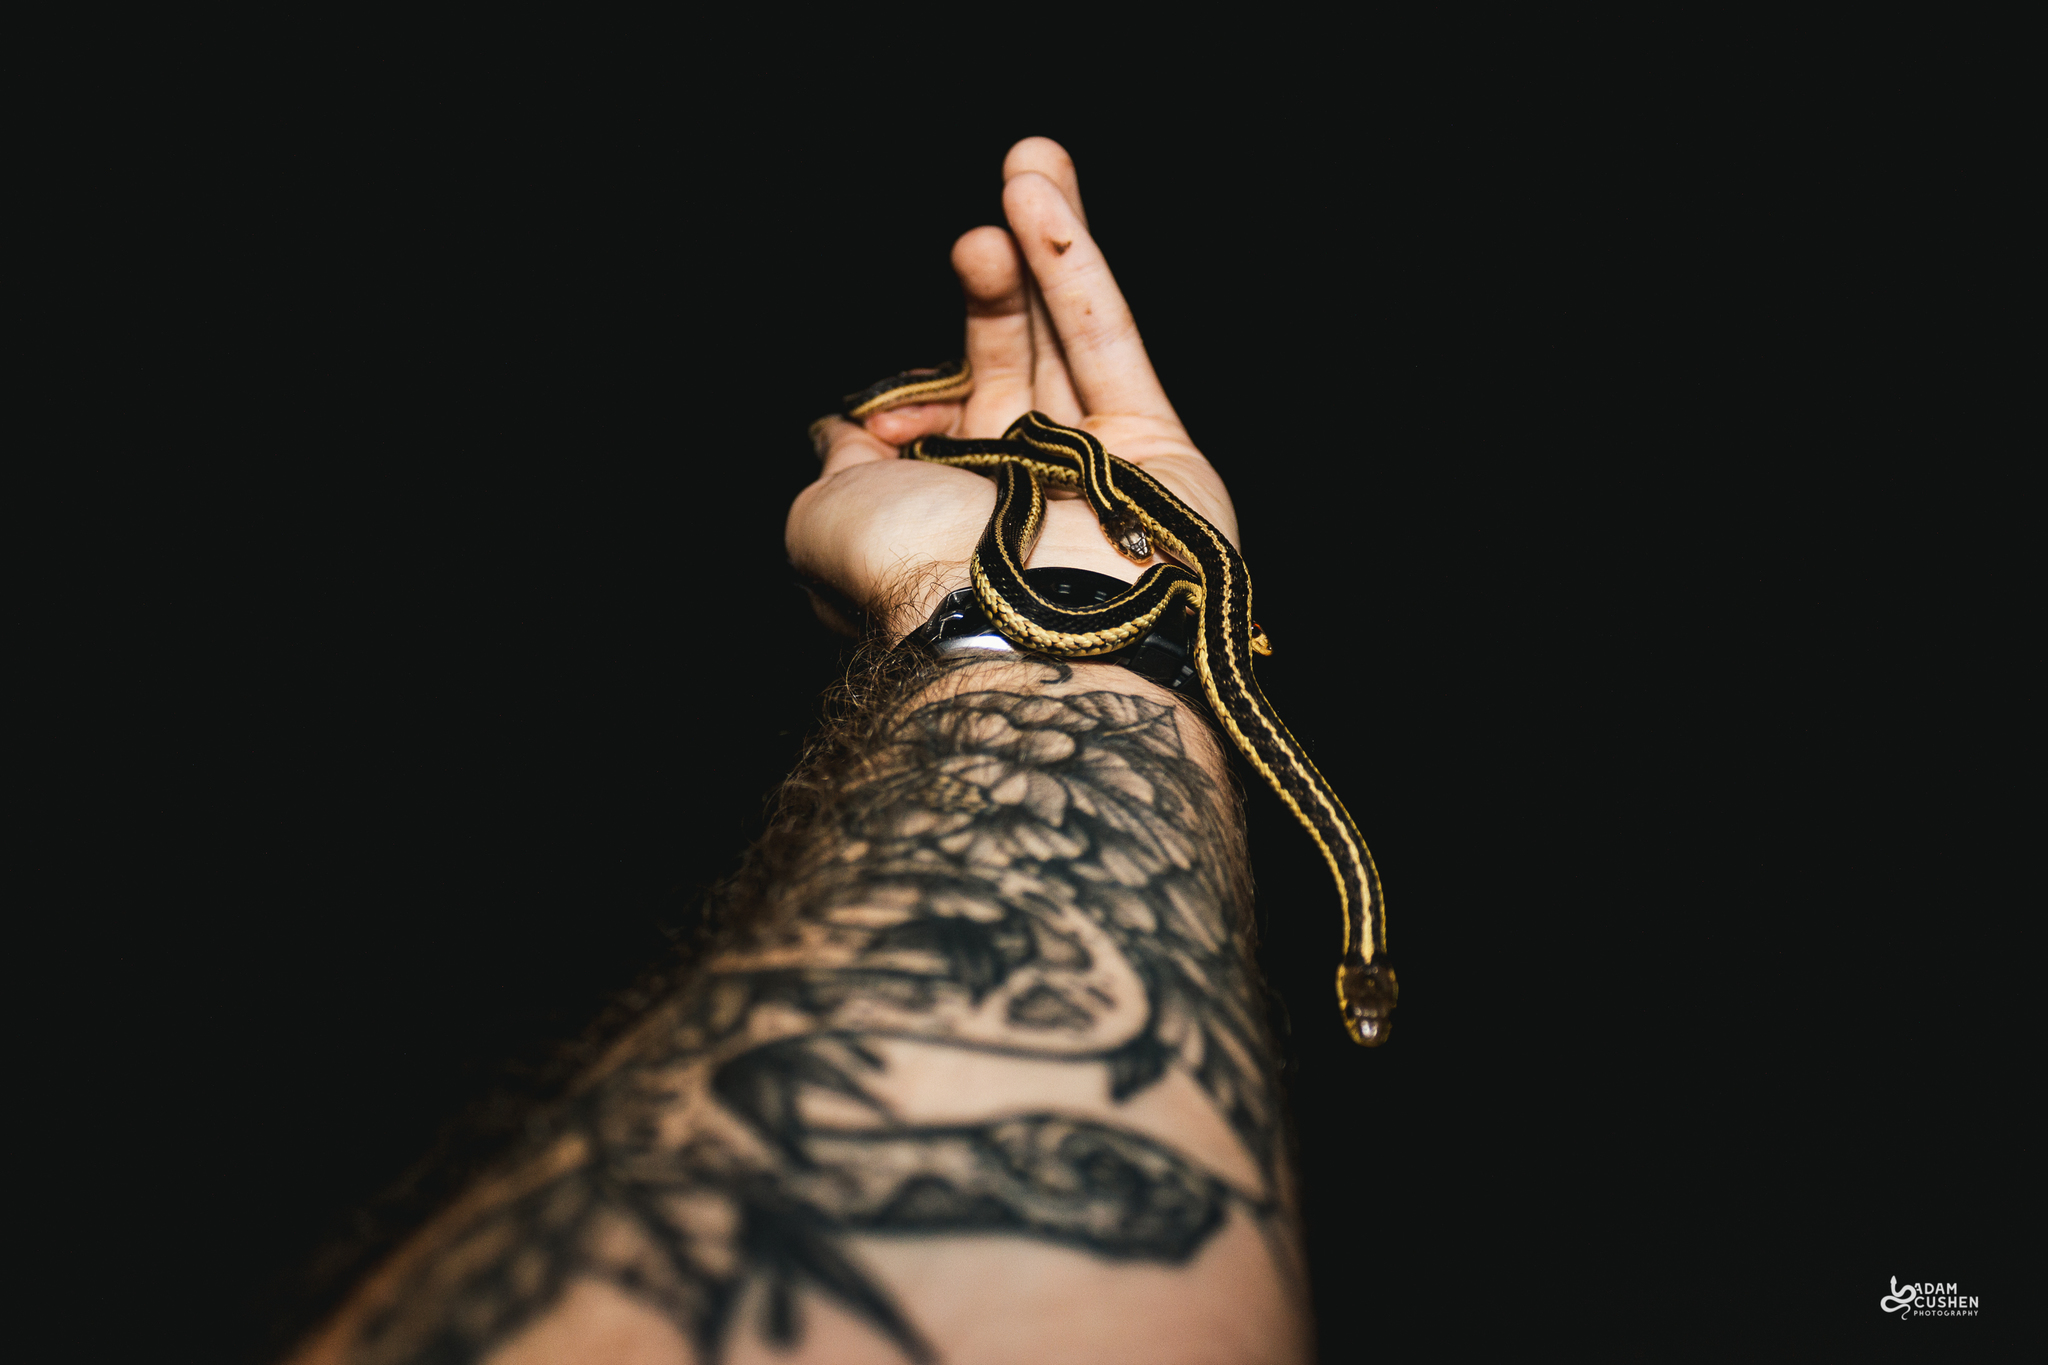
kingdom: Animalia
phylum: Chordata
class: Squamata
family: Colubridae
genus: Thamnophis
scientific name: Thamnophis sirtalis
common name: Common garter snake
